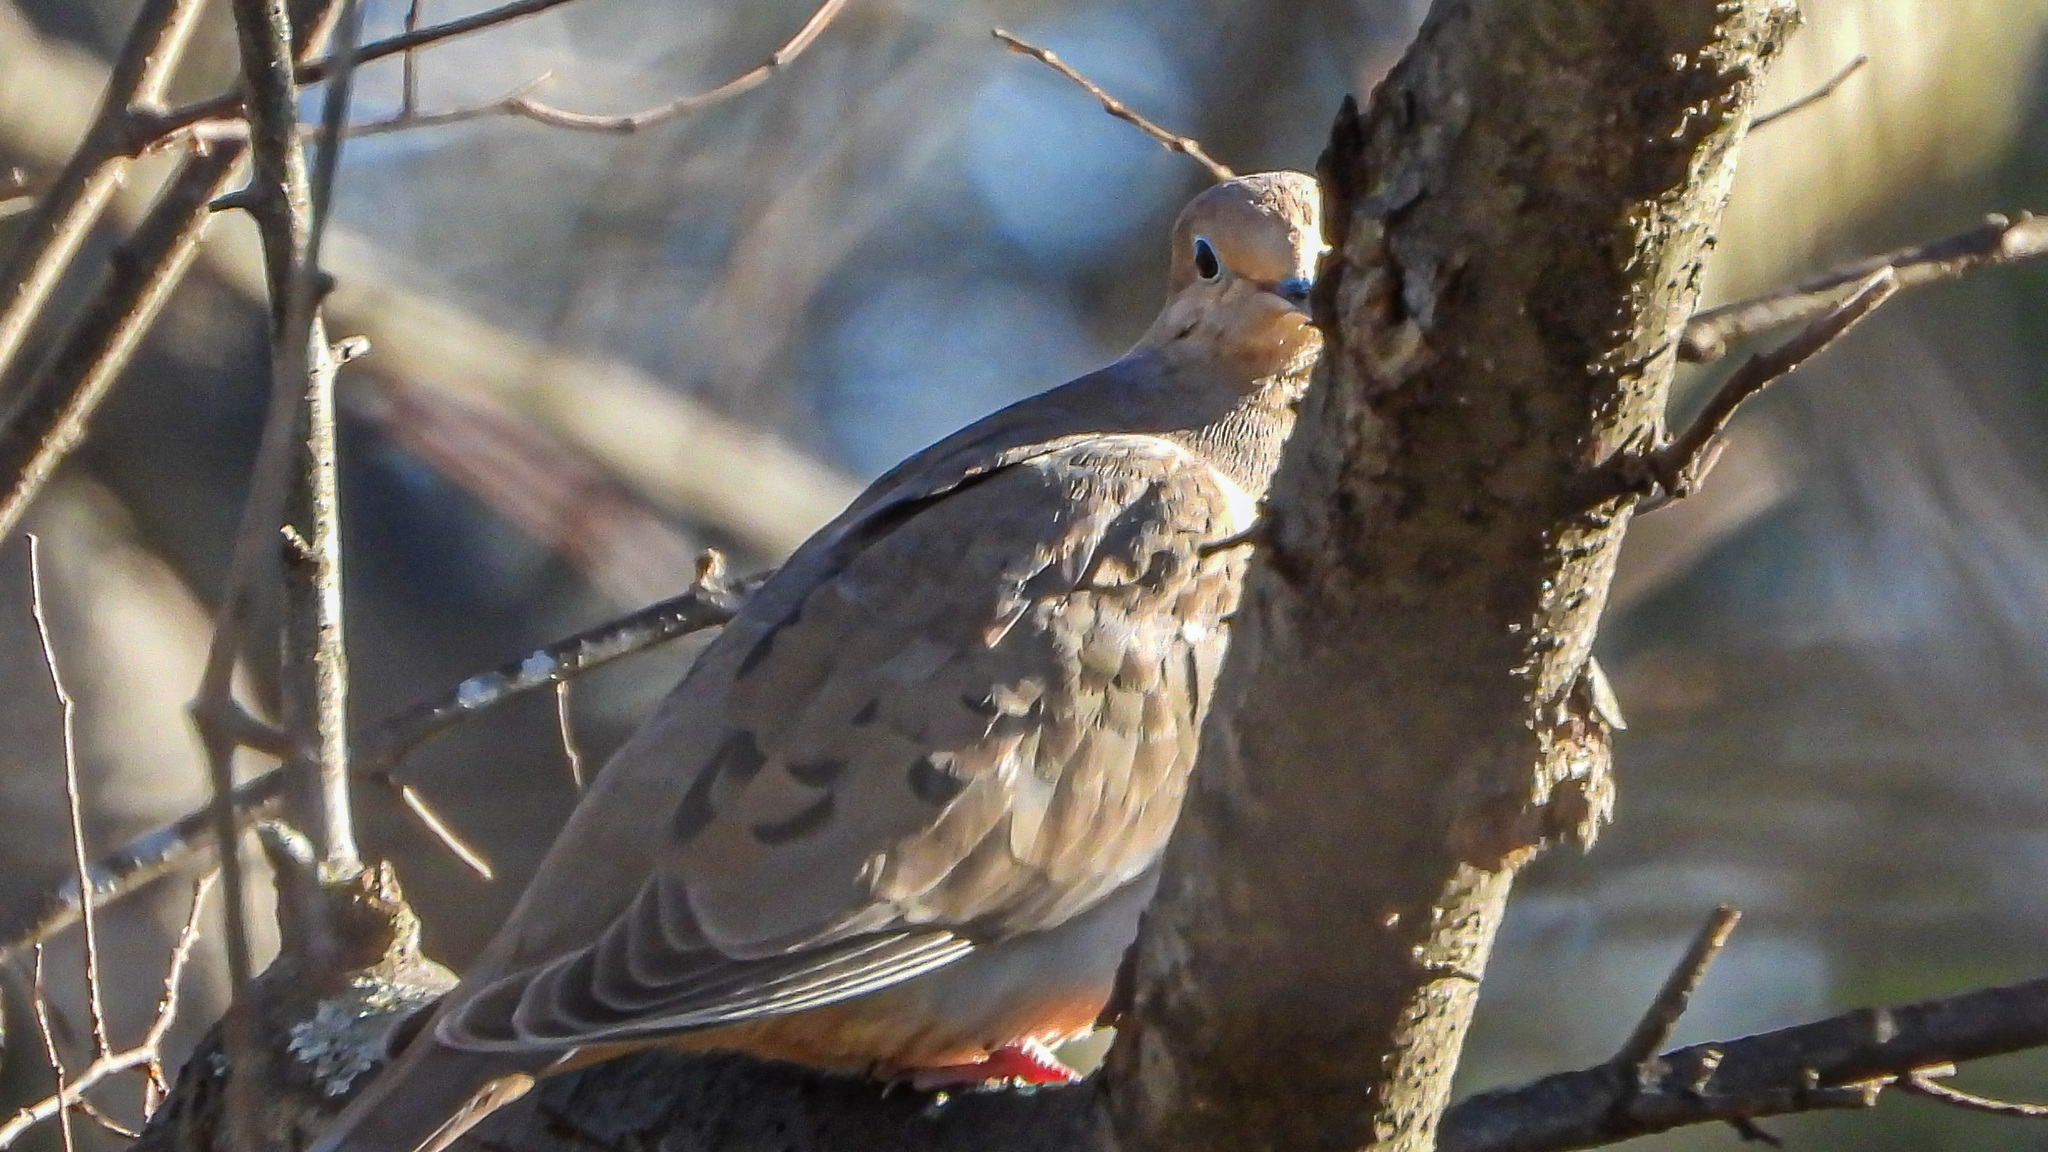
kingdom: Animalia
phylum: Chordata
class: Aves
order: Columbiformes
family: Columbidae
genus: Zenaida
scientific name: Zenaida macroura
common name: Mourning dove
